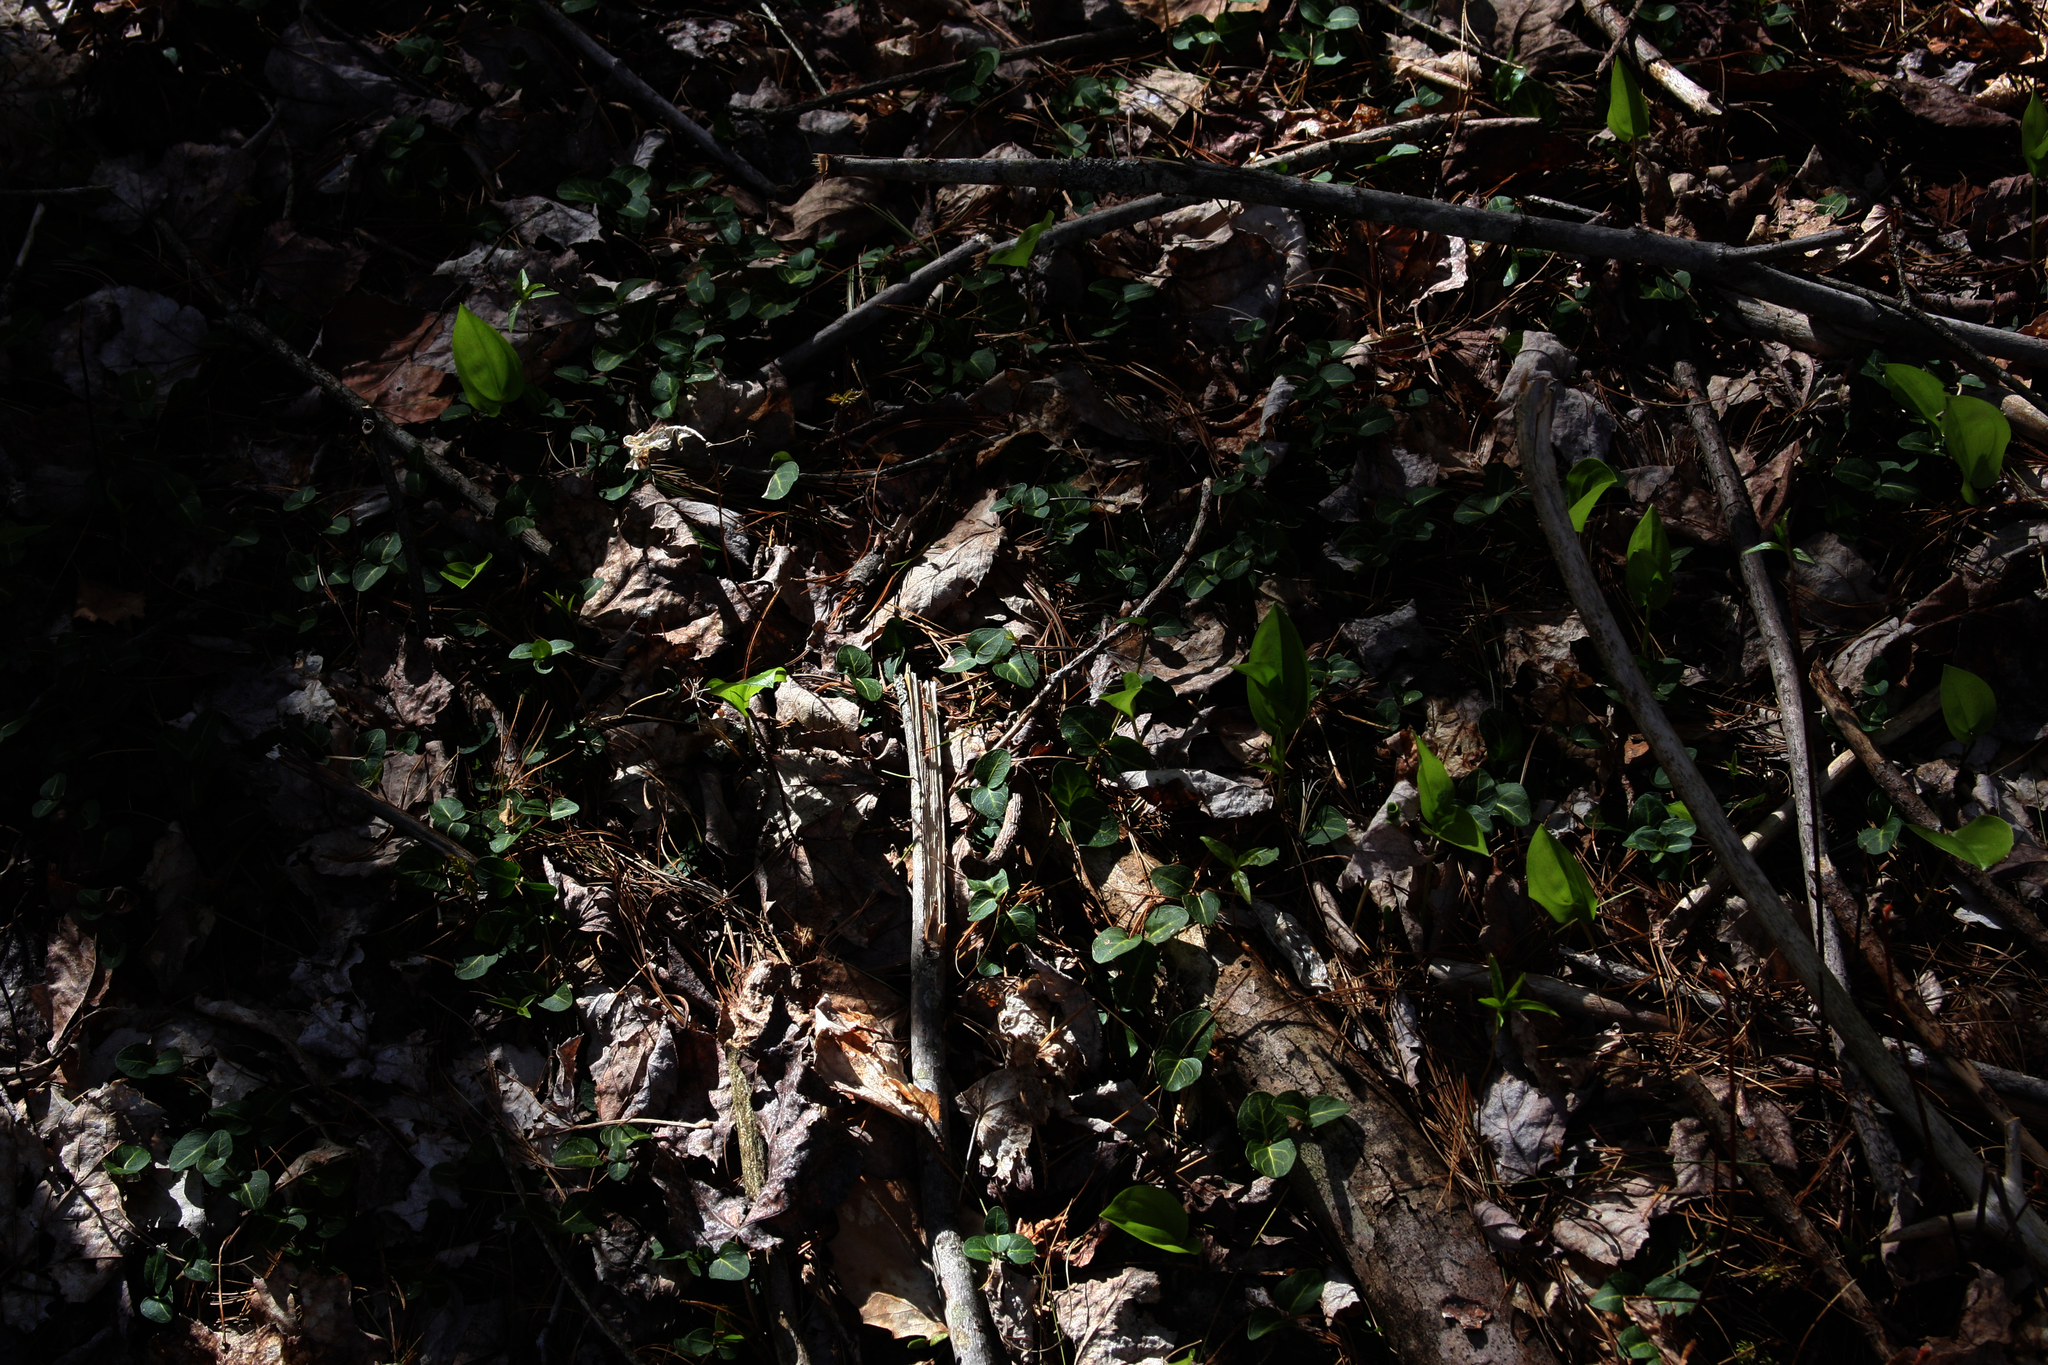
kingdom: Plantae
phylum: Tracheophyta
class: Liliopsida
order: Asparagales
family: Asparagaceae
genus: Maianthemum
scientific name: Maianthemum canadense
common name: False lily-of-the-valley
